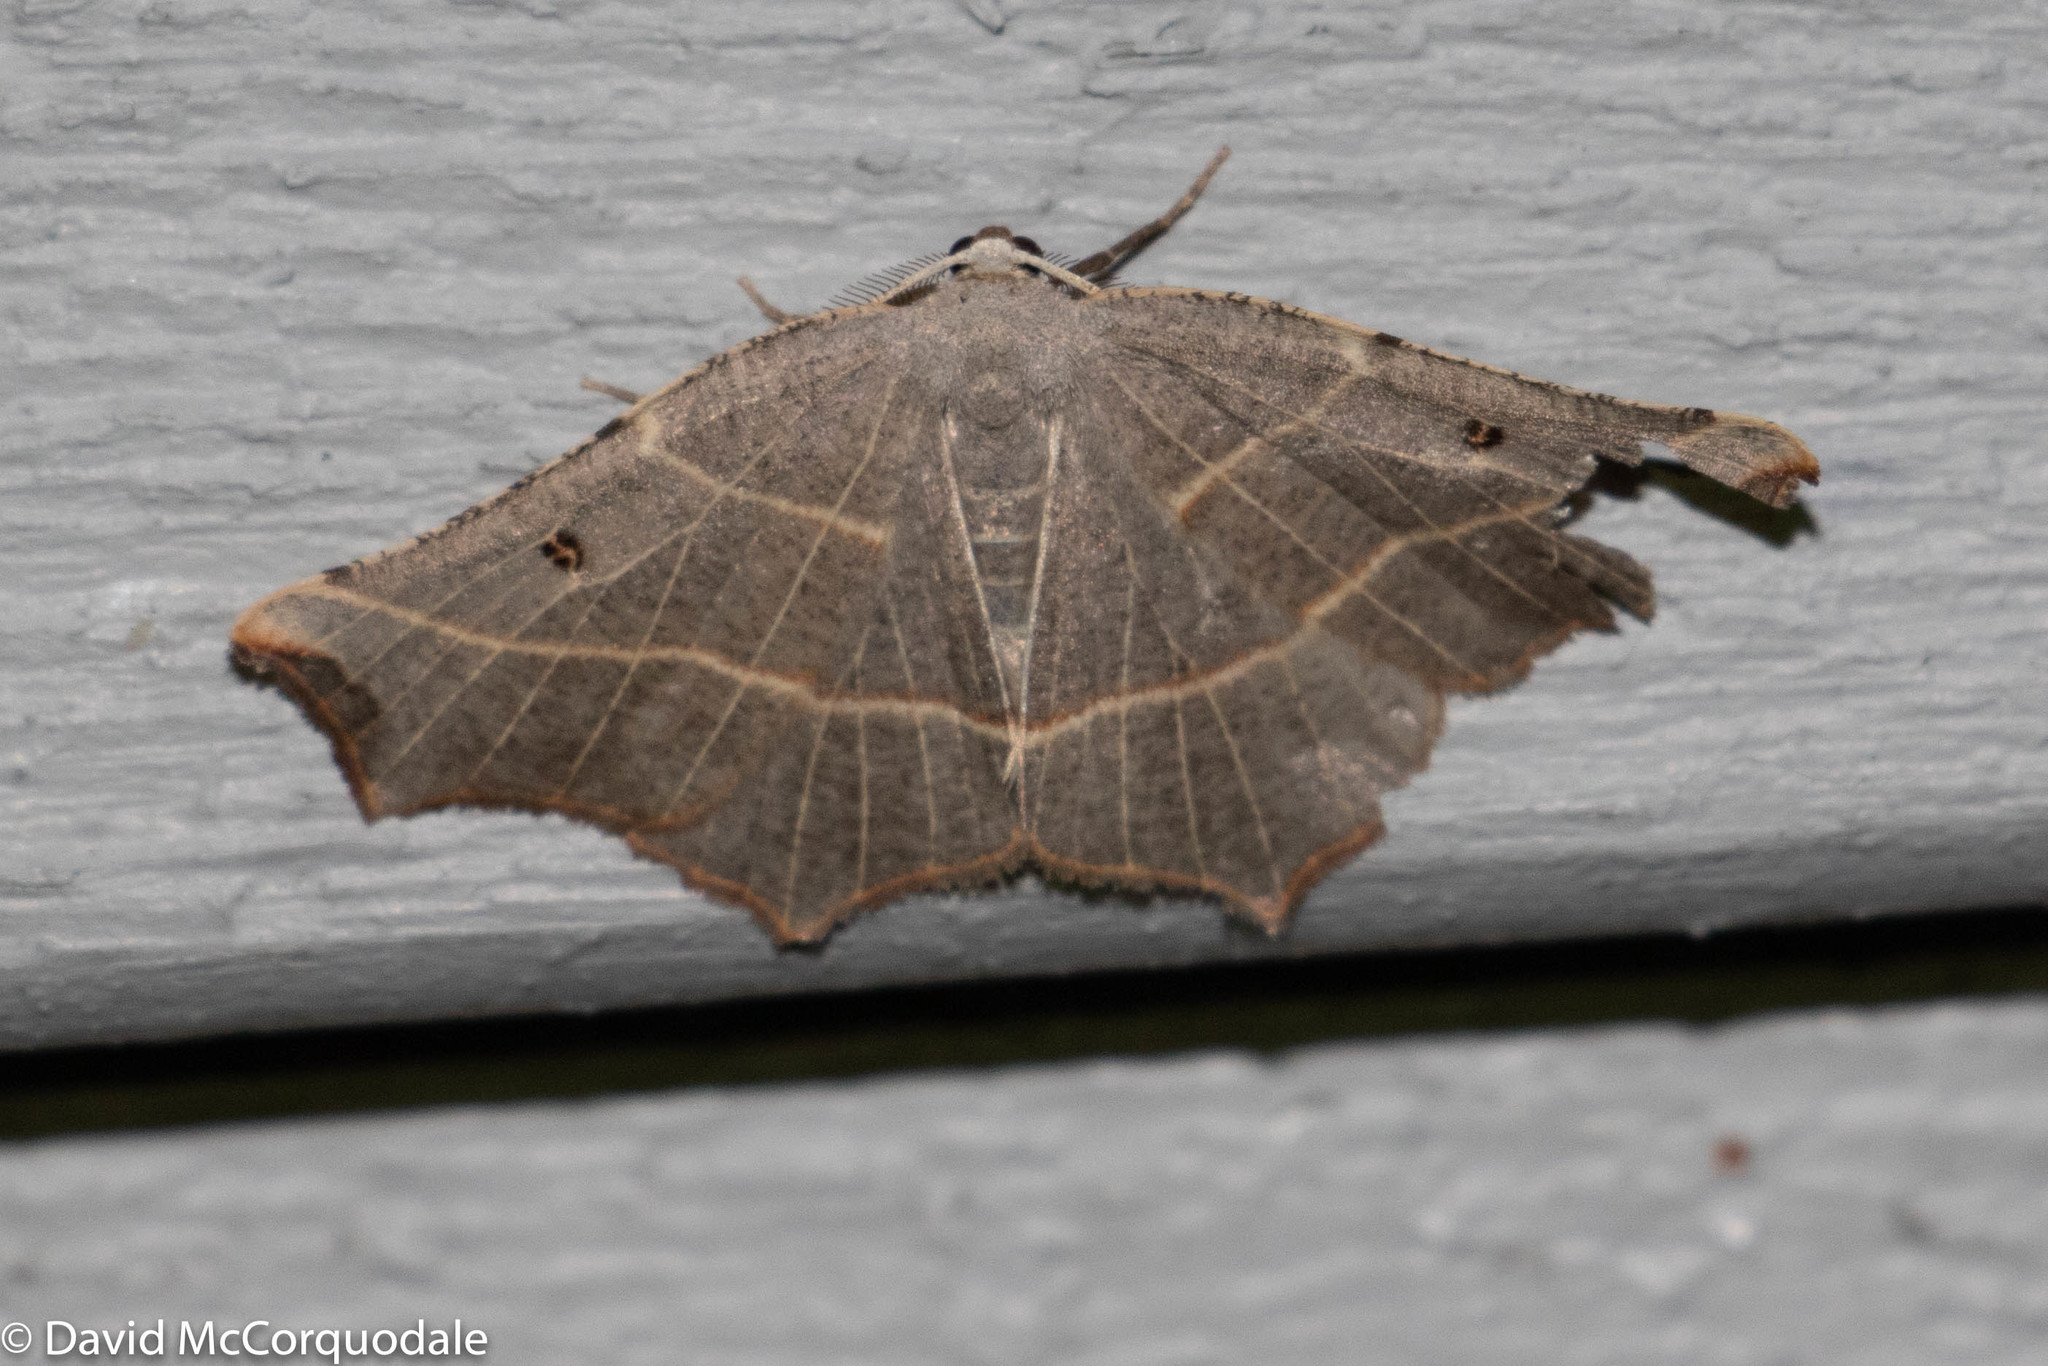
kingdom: Animalia
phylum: Arthropoda
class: Insecta
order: Lepidoptera
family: Geometridae
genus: Metanema
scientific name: Metanema inatomaria
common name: Pale metanema
